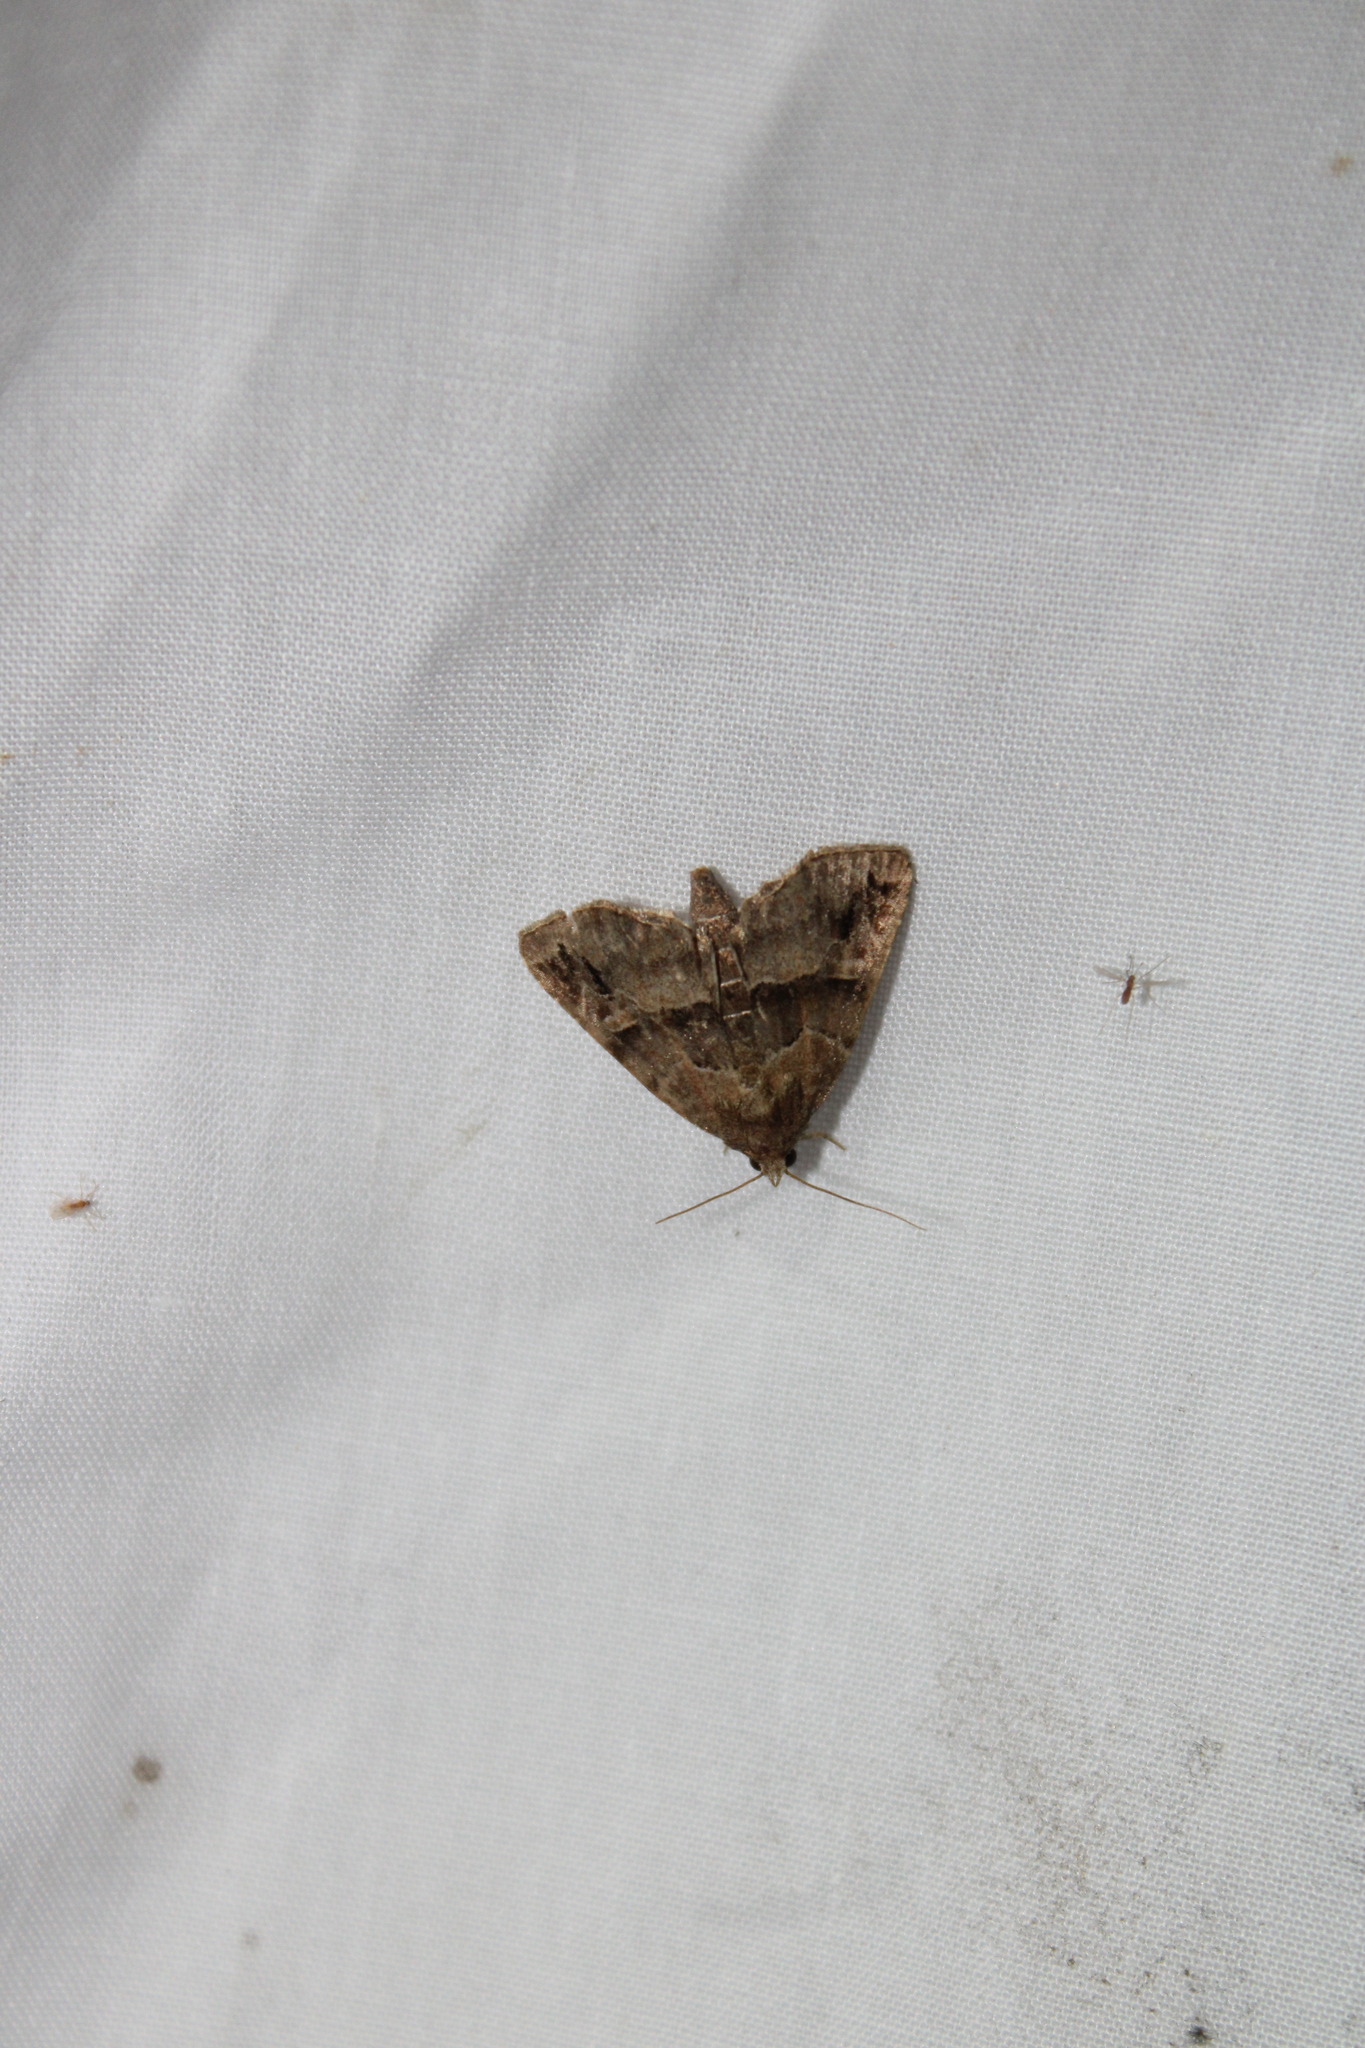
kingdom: Animalia
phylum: Arthropoda
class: Insecta
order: Lepidoptera
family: Noctuidae
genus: Niphonyx
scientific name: Niphonyx segregata
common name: Hops angleshade moth
